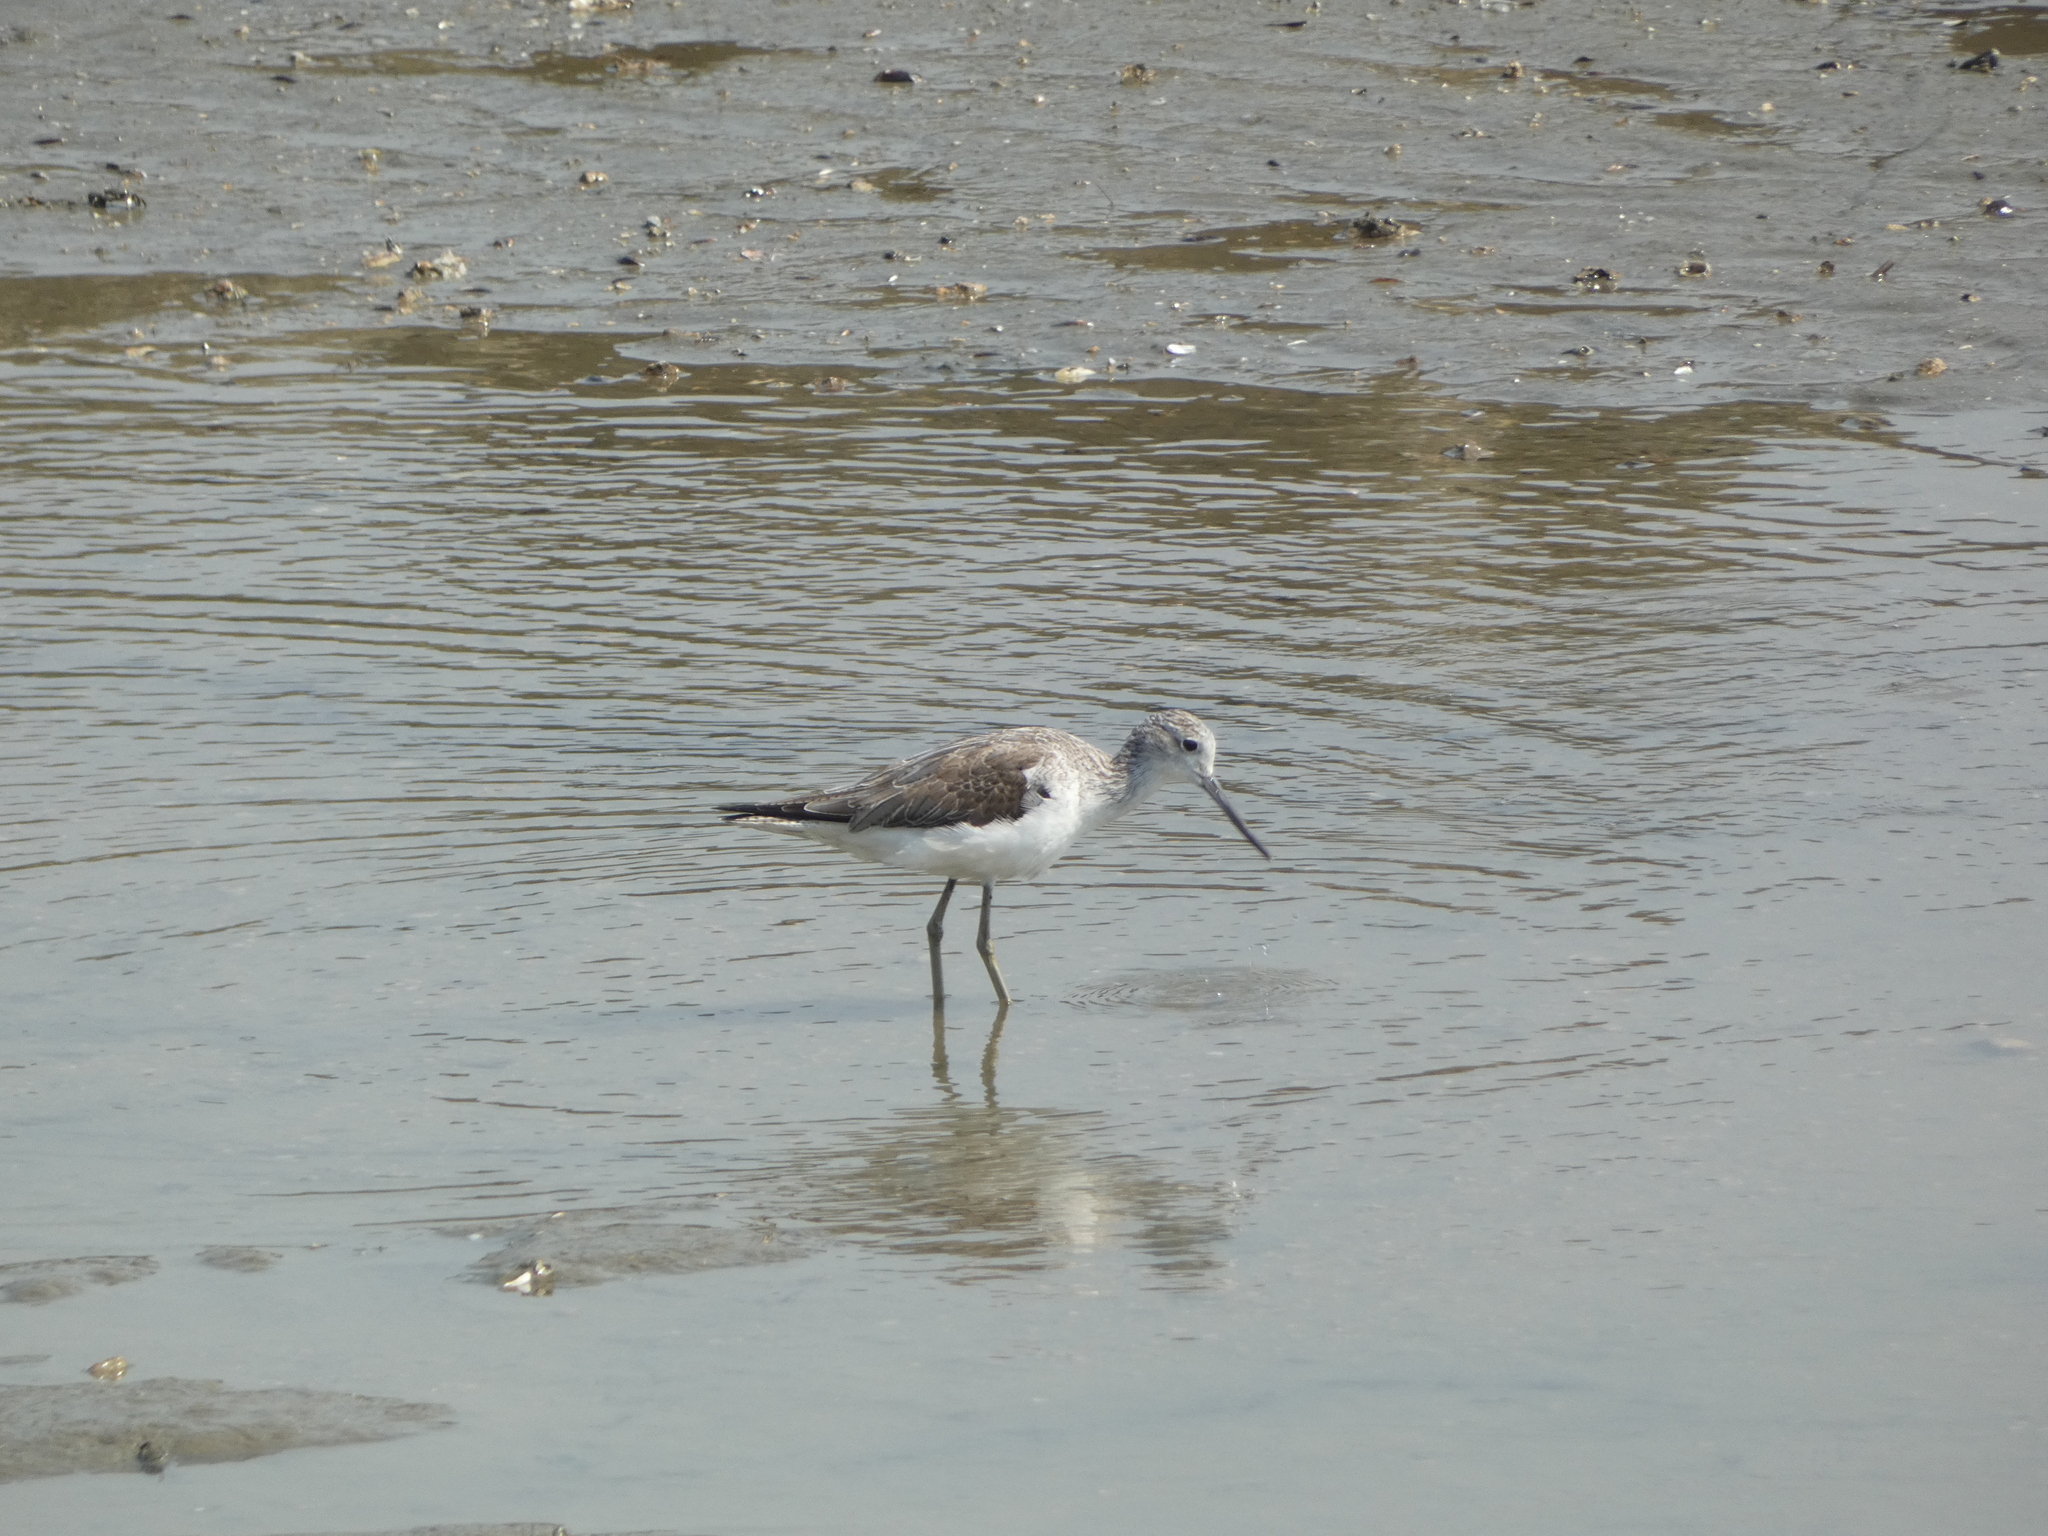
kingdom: Animalia
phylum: Chordata
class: Aves
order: Charadriiformes
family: Scolopacidae
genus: Tringa
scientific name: Tringa nebularia
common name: Common greenshank
